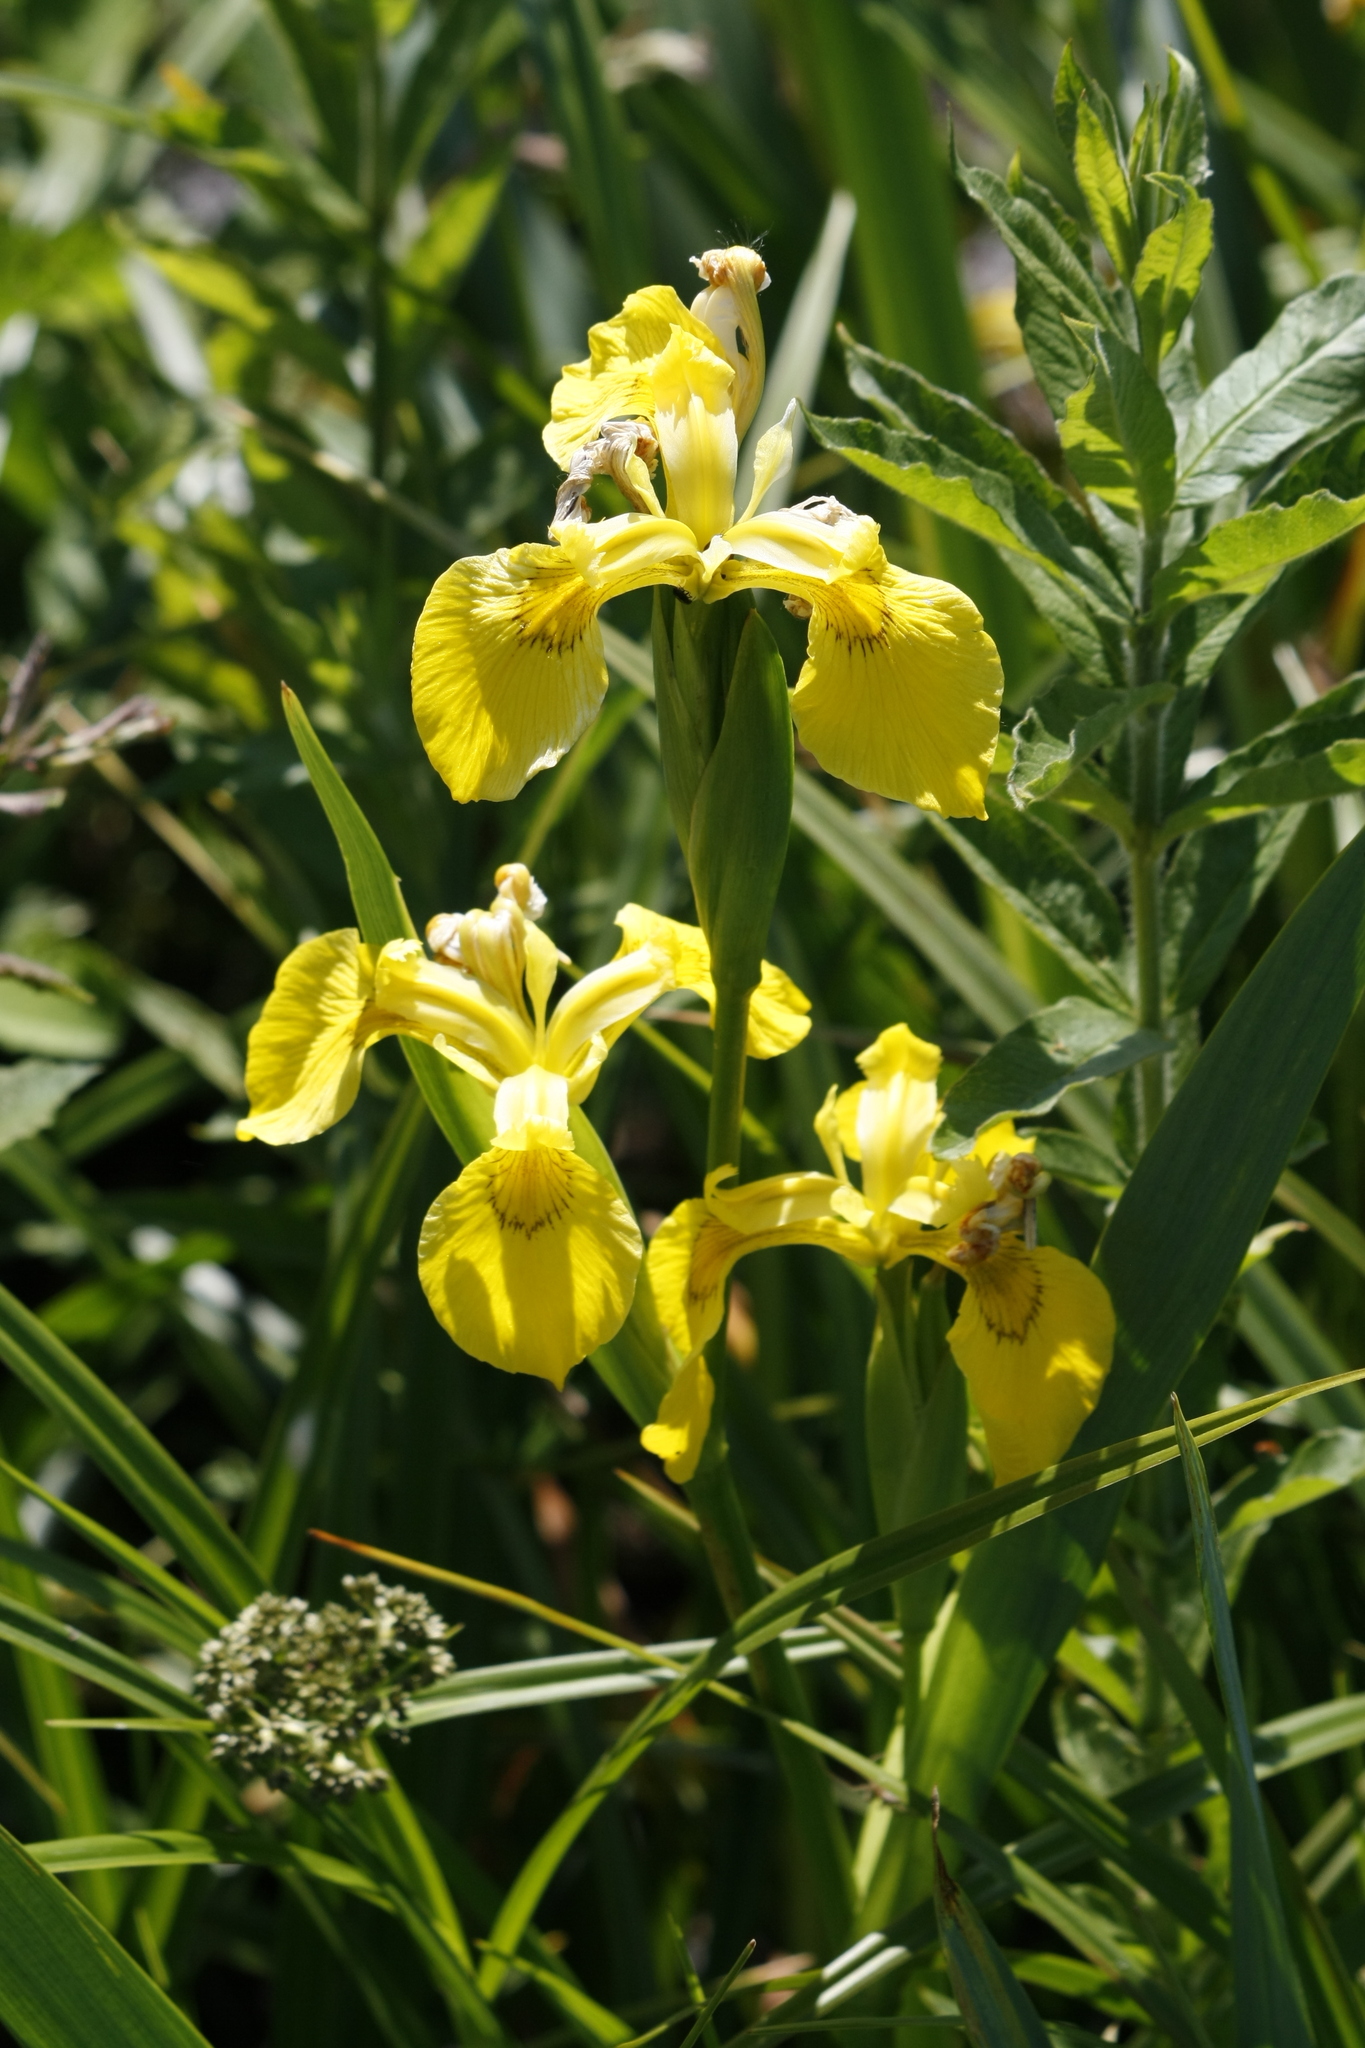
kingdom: Plantae
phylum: Tracheophyta
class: Liliopsida
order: Asparagales
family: Iridaceae
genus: Iris
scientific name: Iris pseudacorus
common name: Yellow flag
